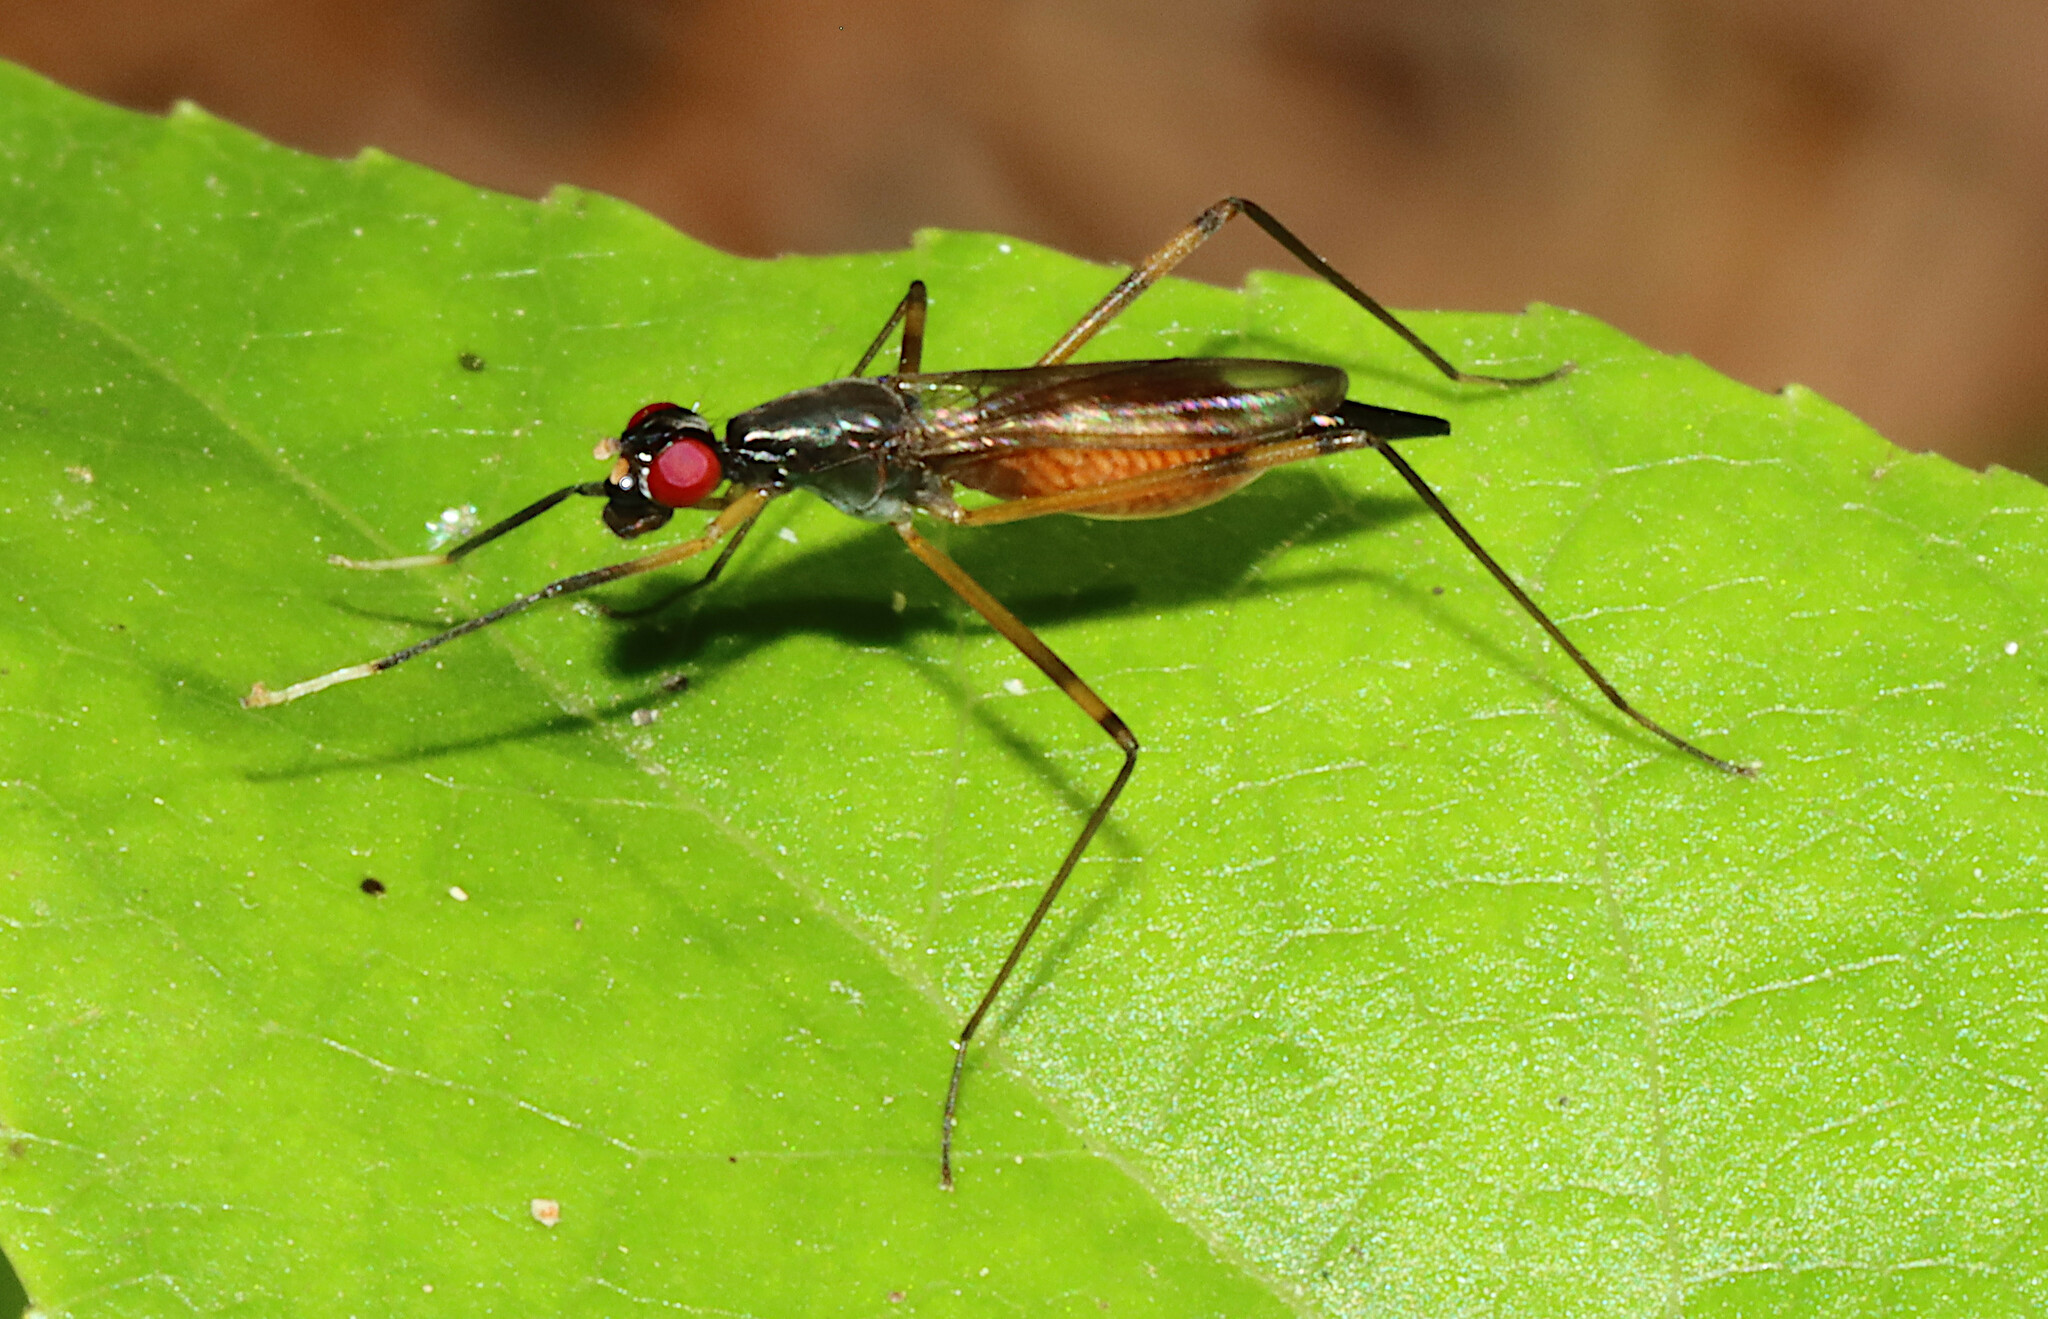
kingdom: Animalia
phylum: Arthropoda
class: Insecta
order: Diptera
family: Micropezidae
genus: Rainieria
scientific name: Rainieria antennaepes
